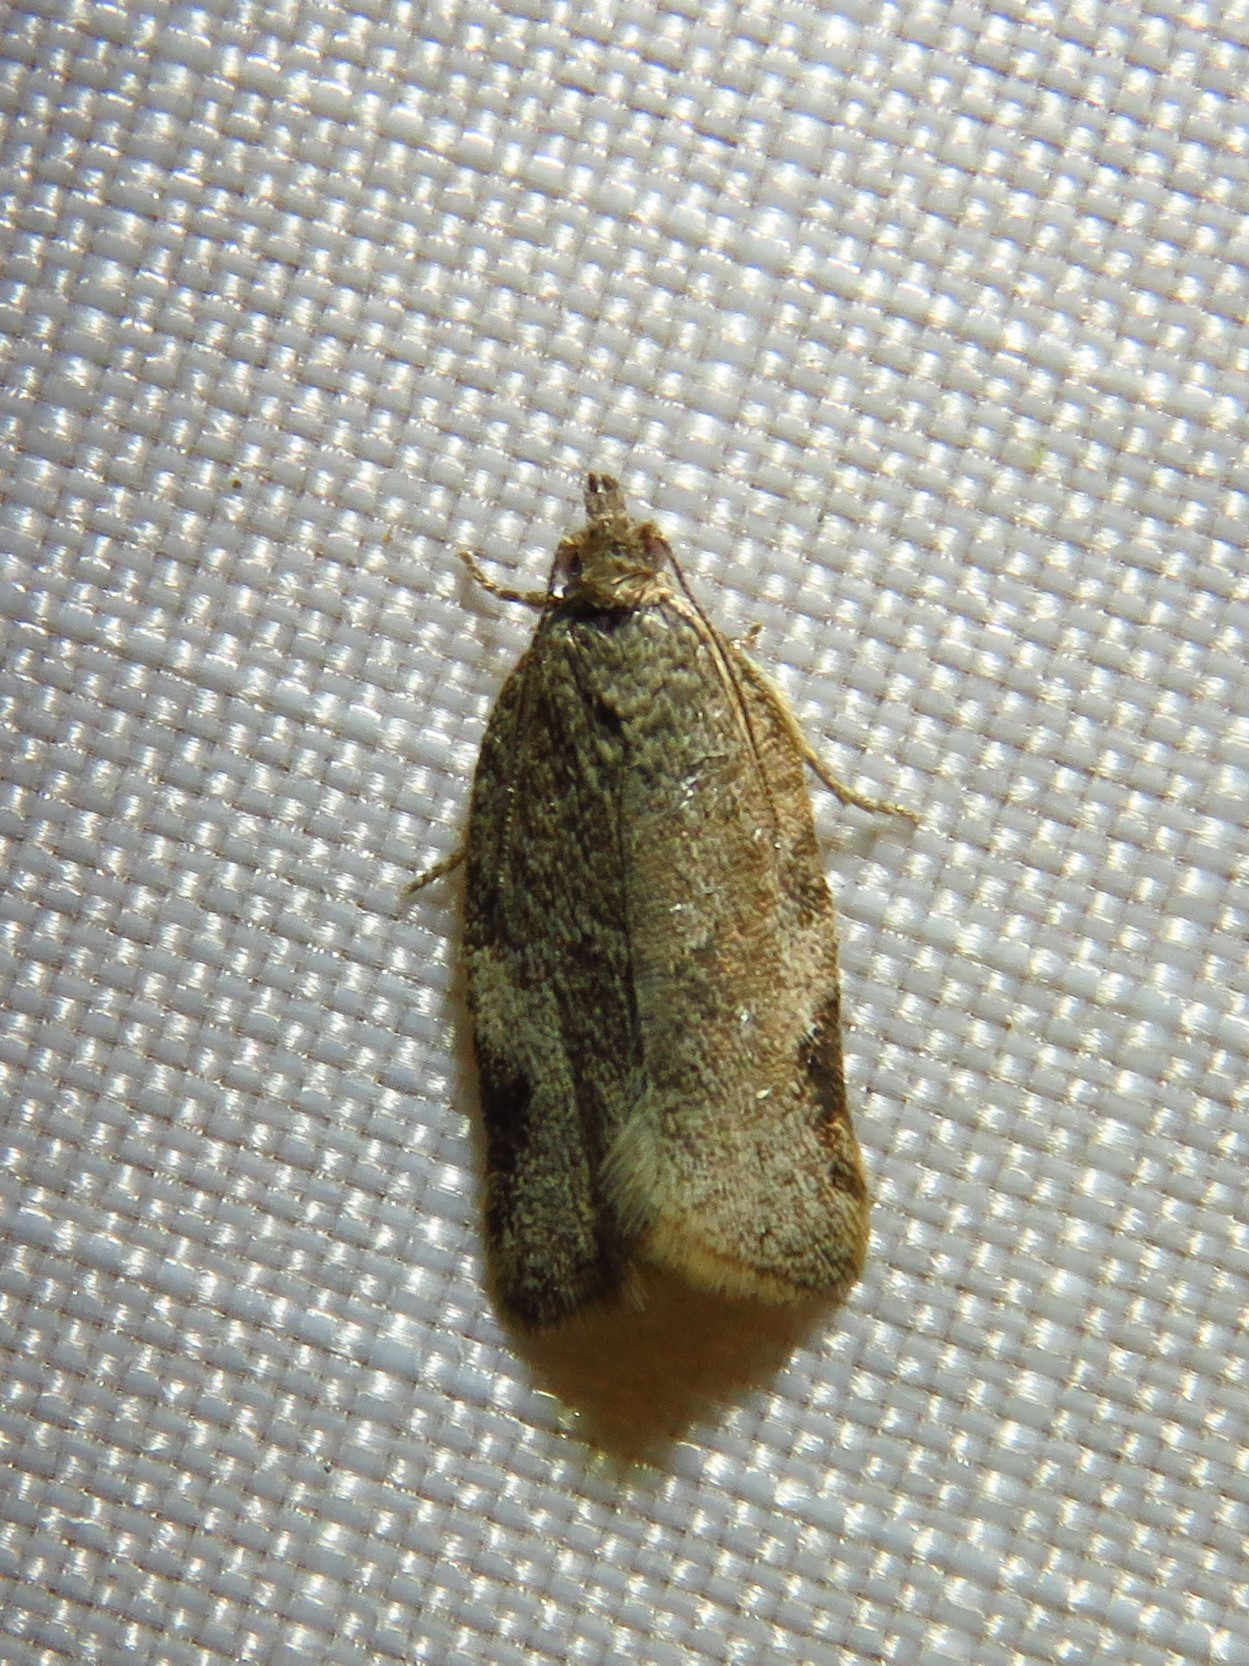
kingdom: Animalia
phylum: Arthropoda
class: Insecta
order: Lepidoptera
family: Tortricidae
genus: Clepsis
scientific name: Clepsis virescana
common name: Greenish apple moth
